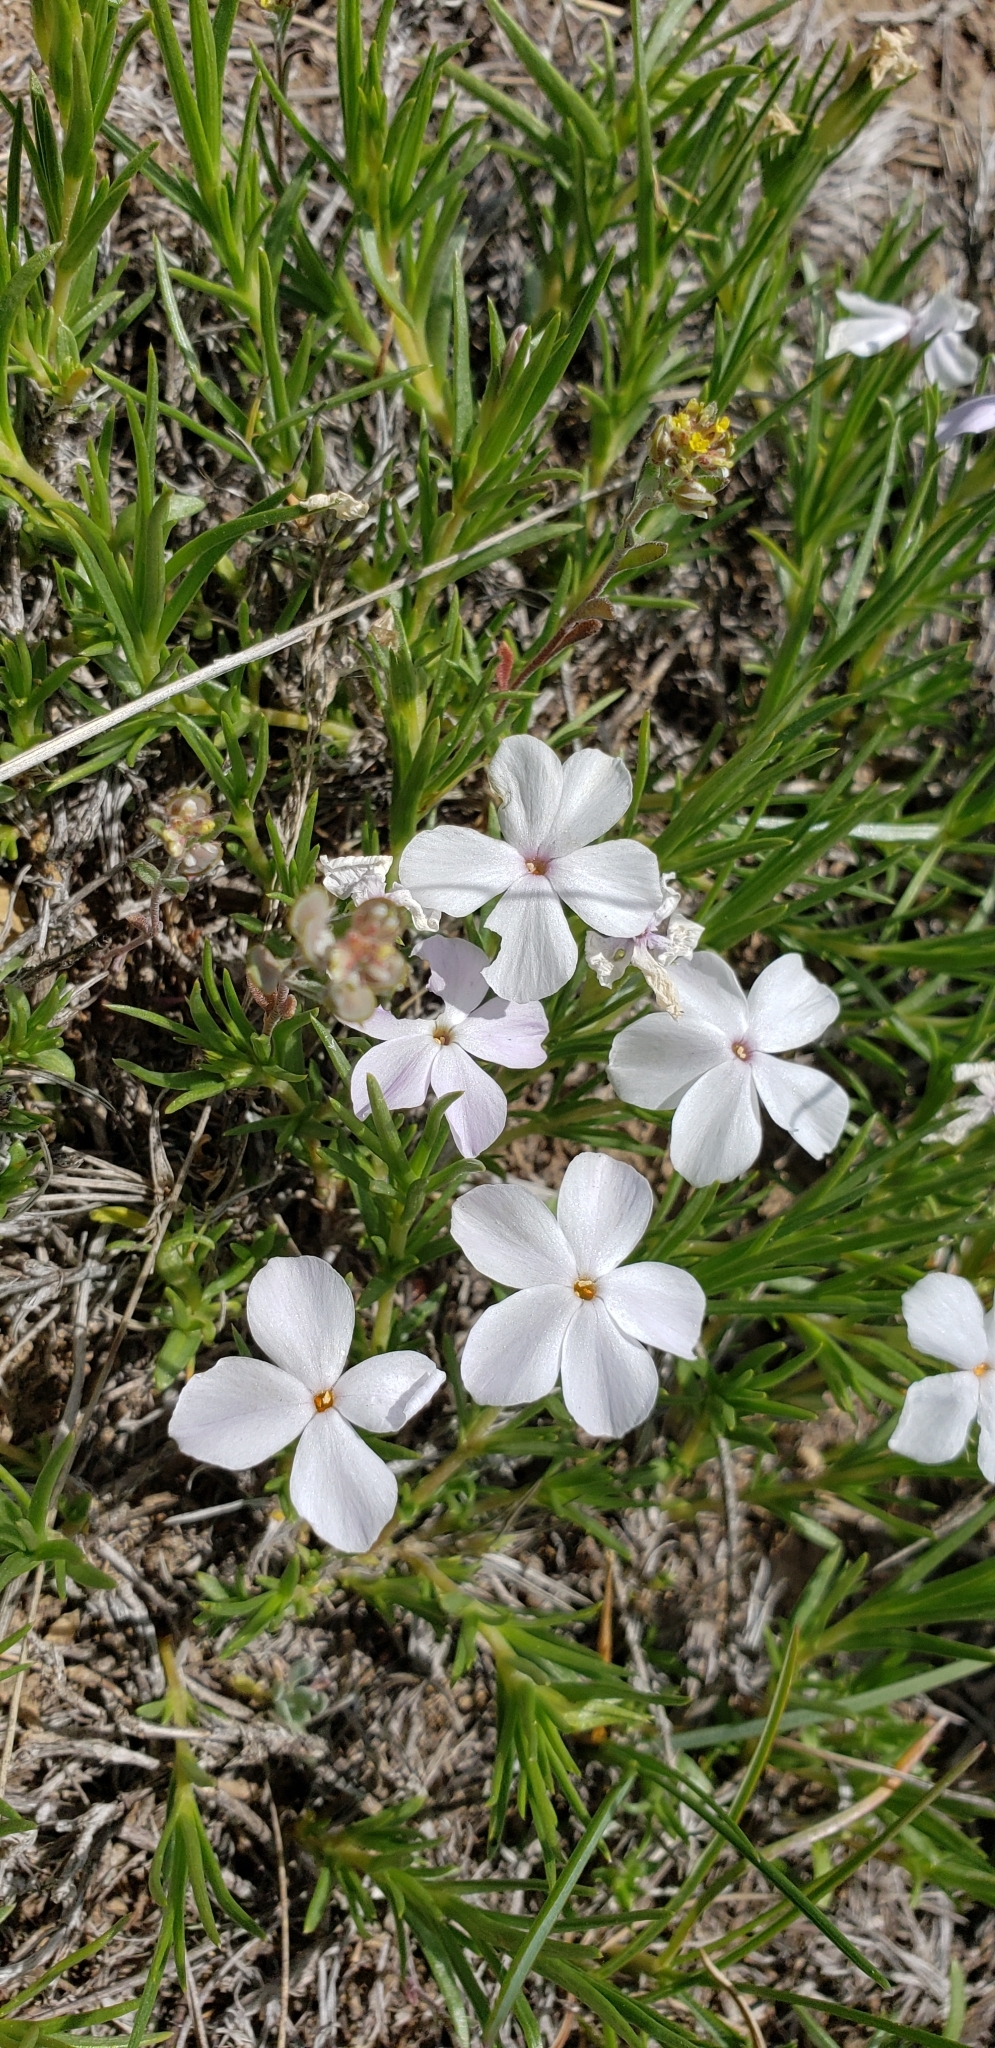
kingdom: Plantae
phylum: Tracheophyta
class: Magnoliopsida
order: Ericales
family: Polemoniaceae
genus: Phlox
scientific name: Phlox multiflora
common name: Rocky mountain phlox
